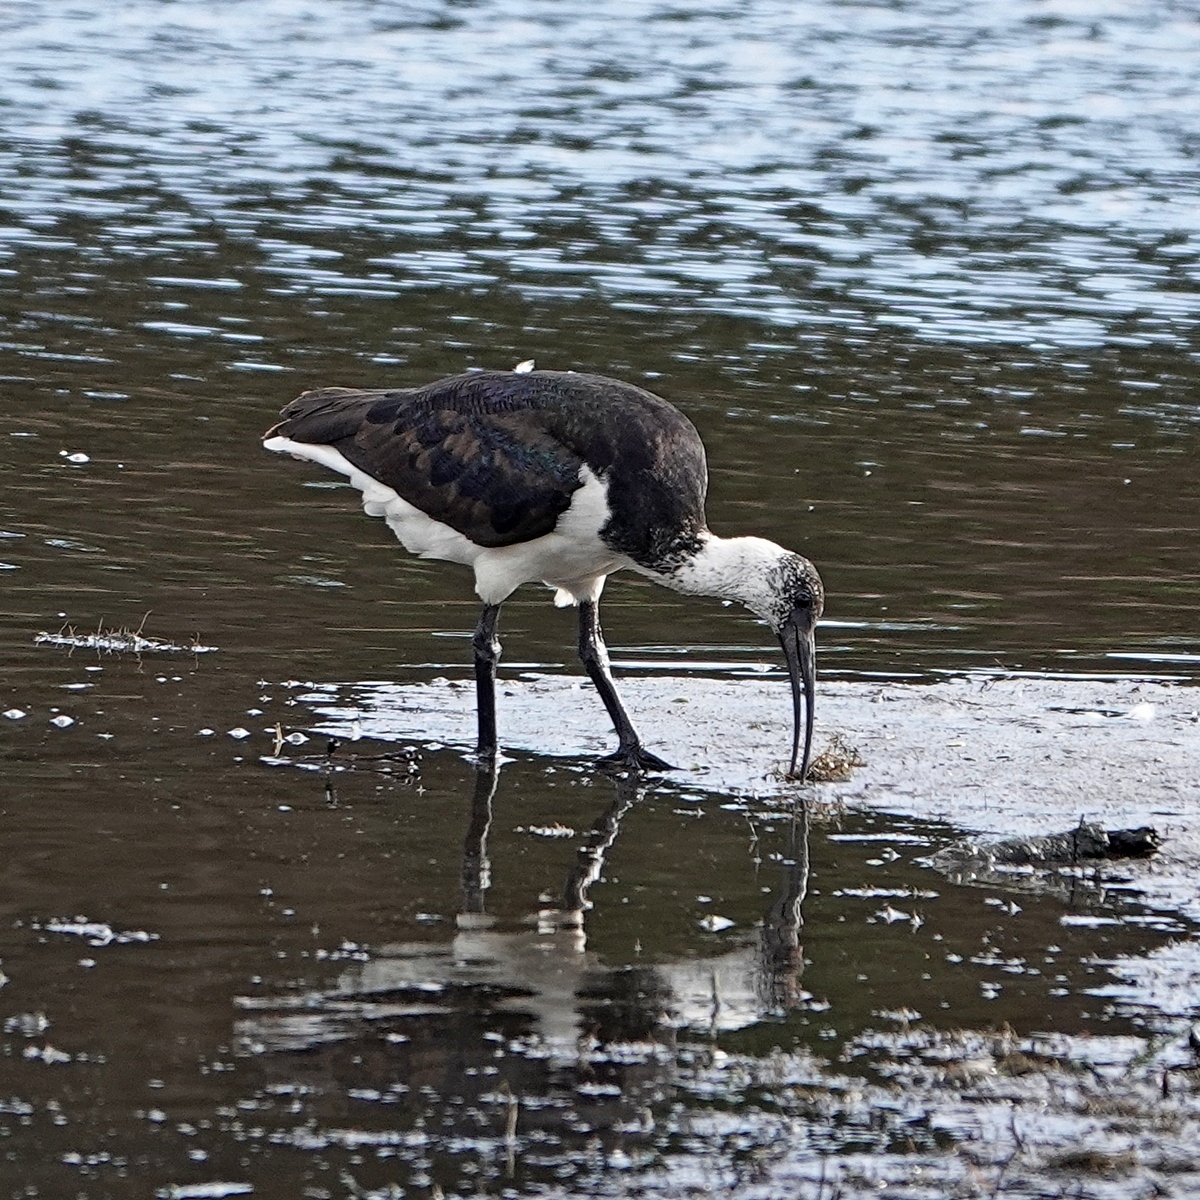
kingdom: Animalia
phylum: Chordata
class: Aves
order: Pelecaniformes
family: Threskiornithidae
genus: Threskiornis
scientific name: Threskiornis spinicollis
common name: Straw-necked ibis
